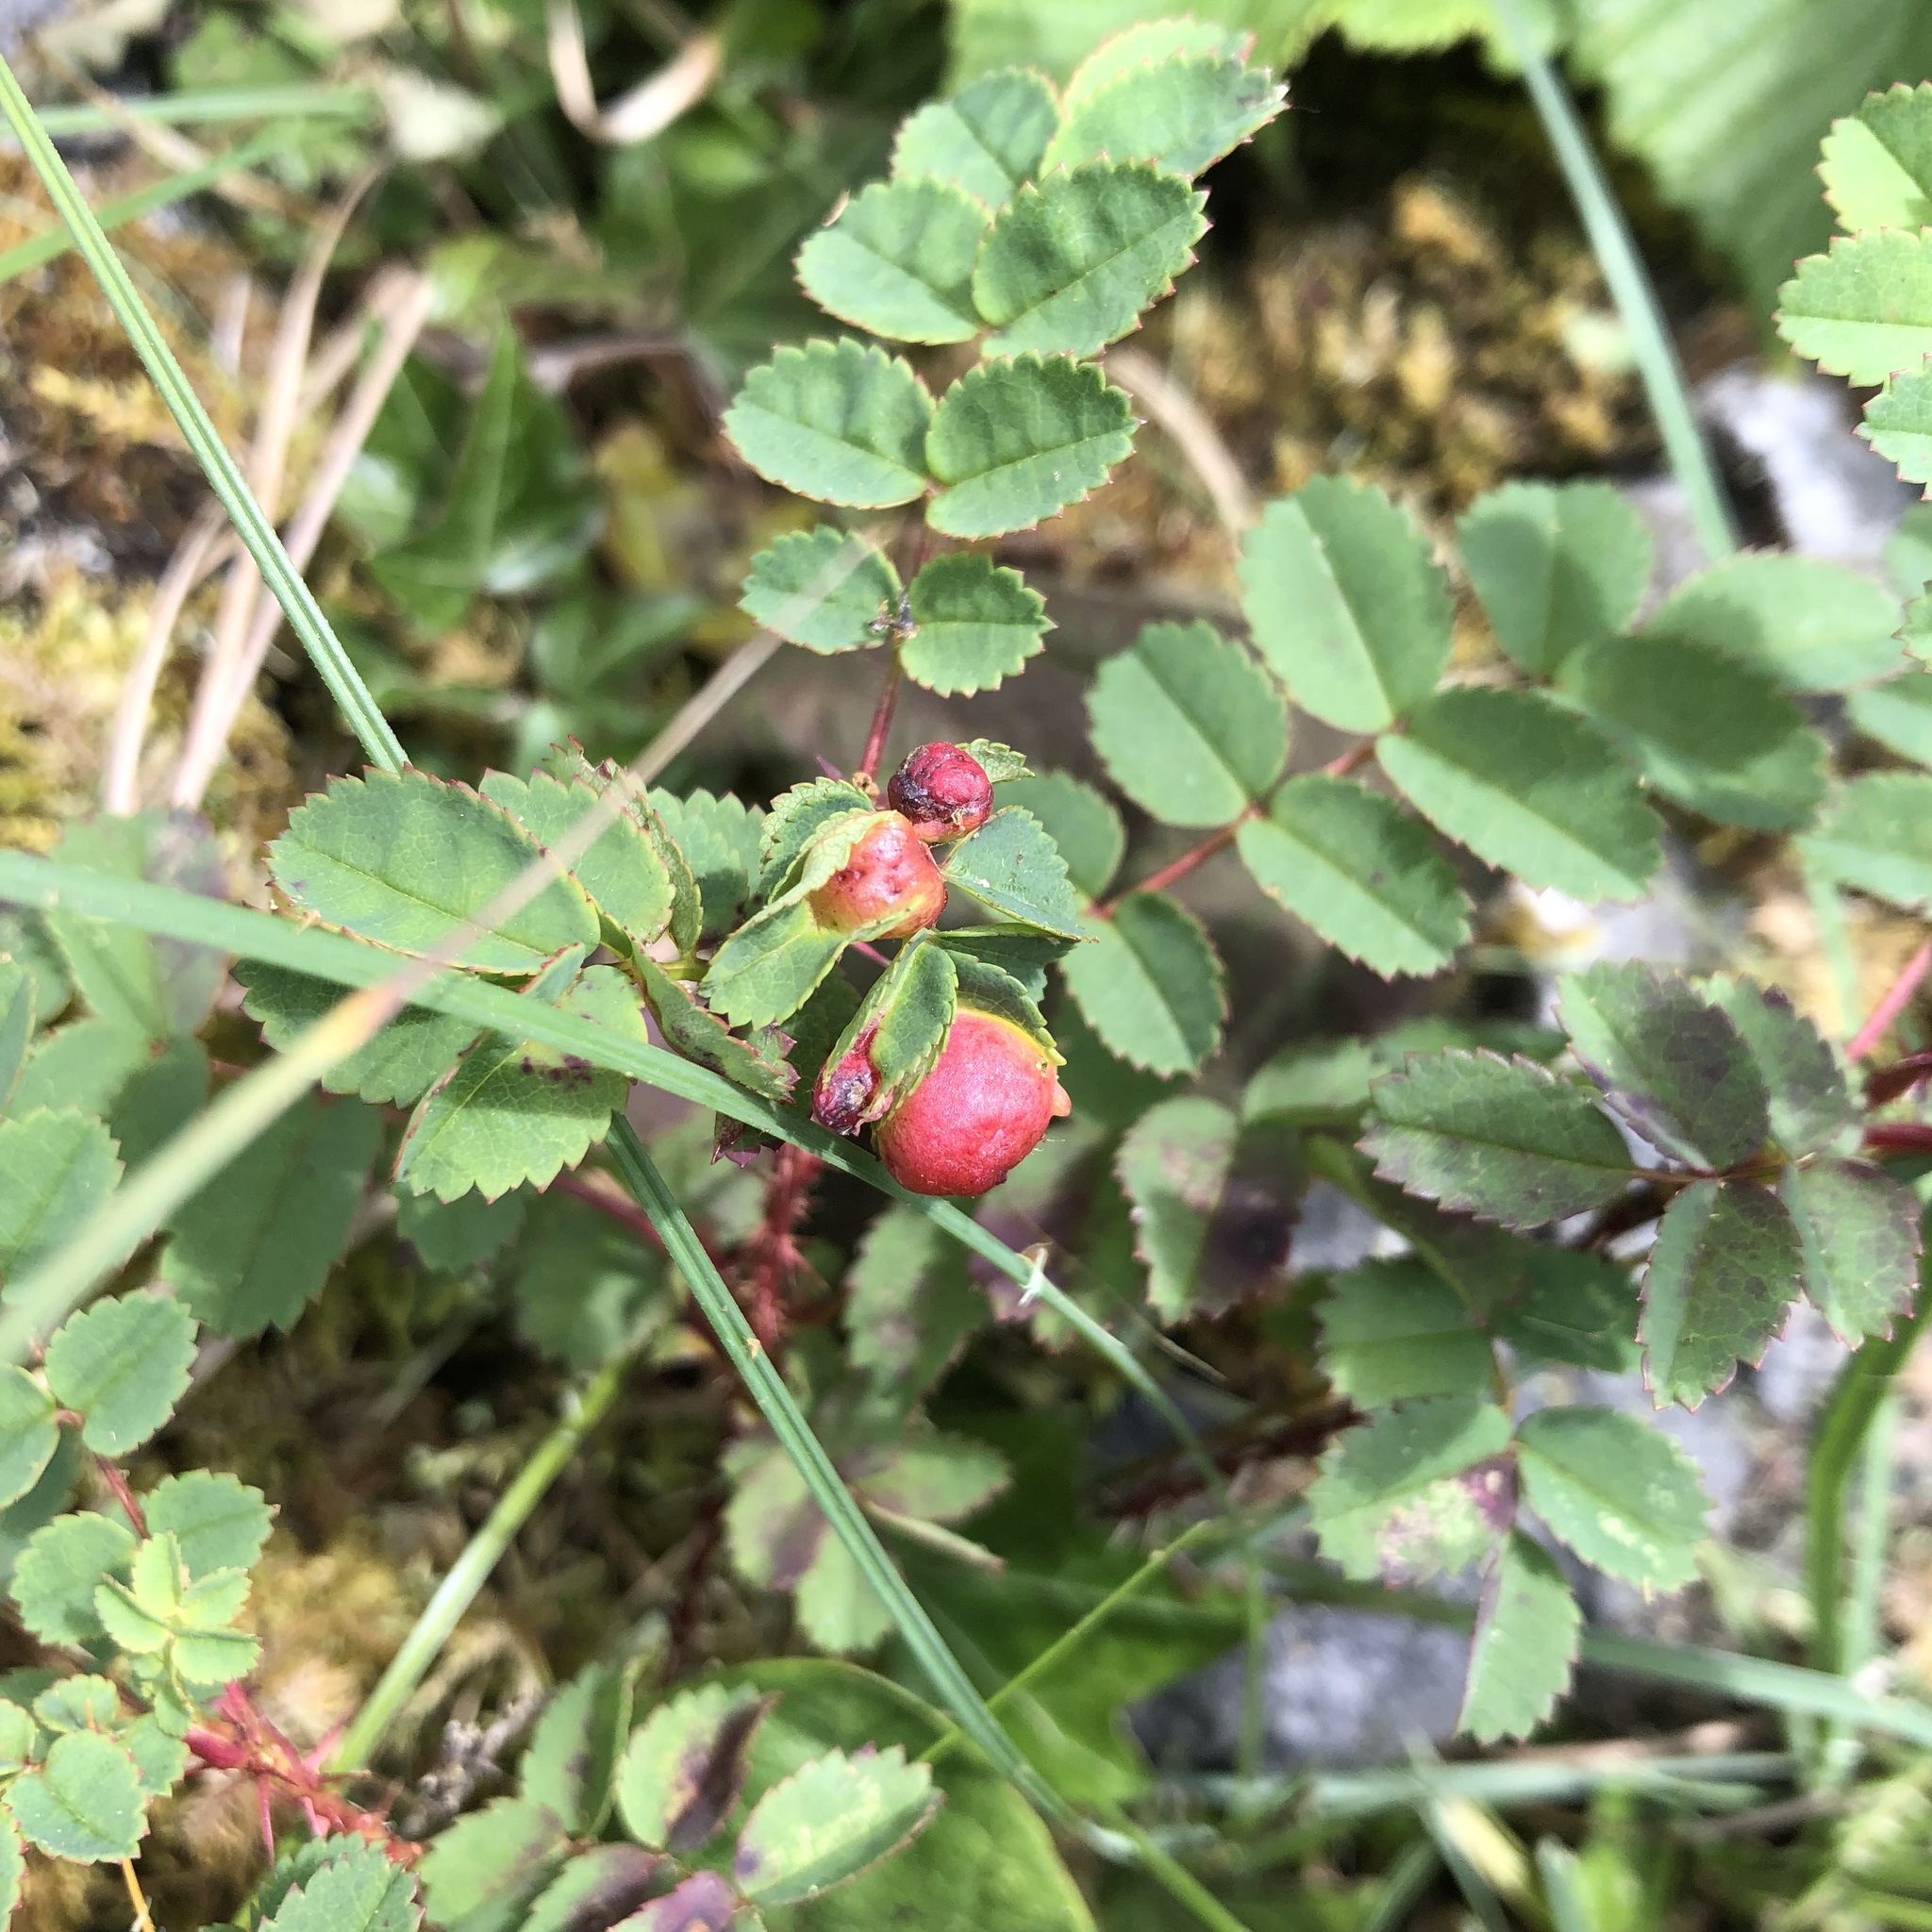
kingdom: Plantae
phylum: Tracheophyta
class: Magnoliopsida
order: Rosales
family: Rosaceae
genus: Rosa
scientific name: Rosa spinosissima
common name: Burnet rose
